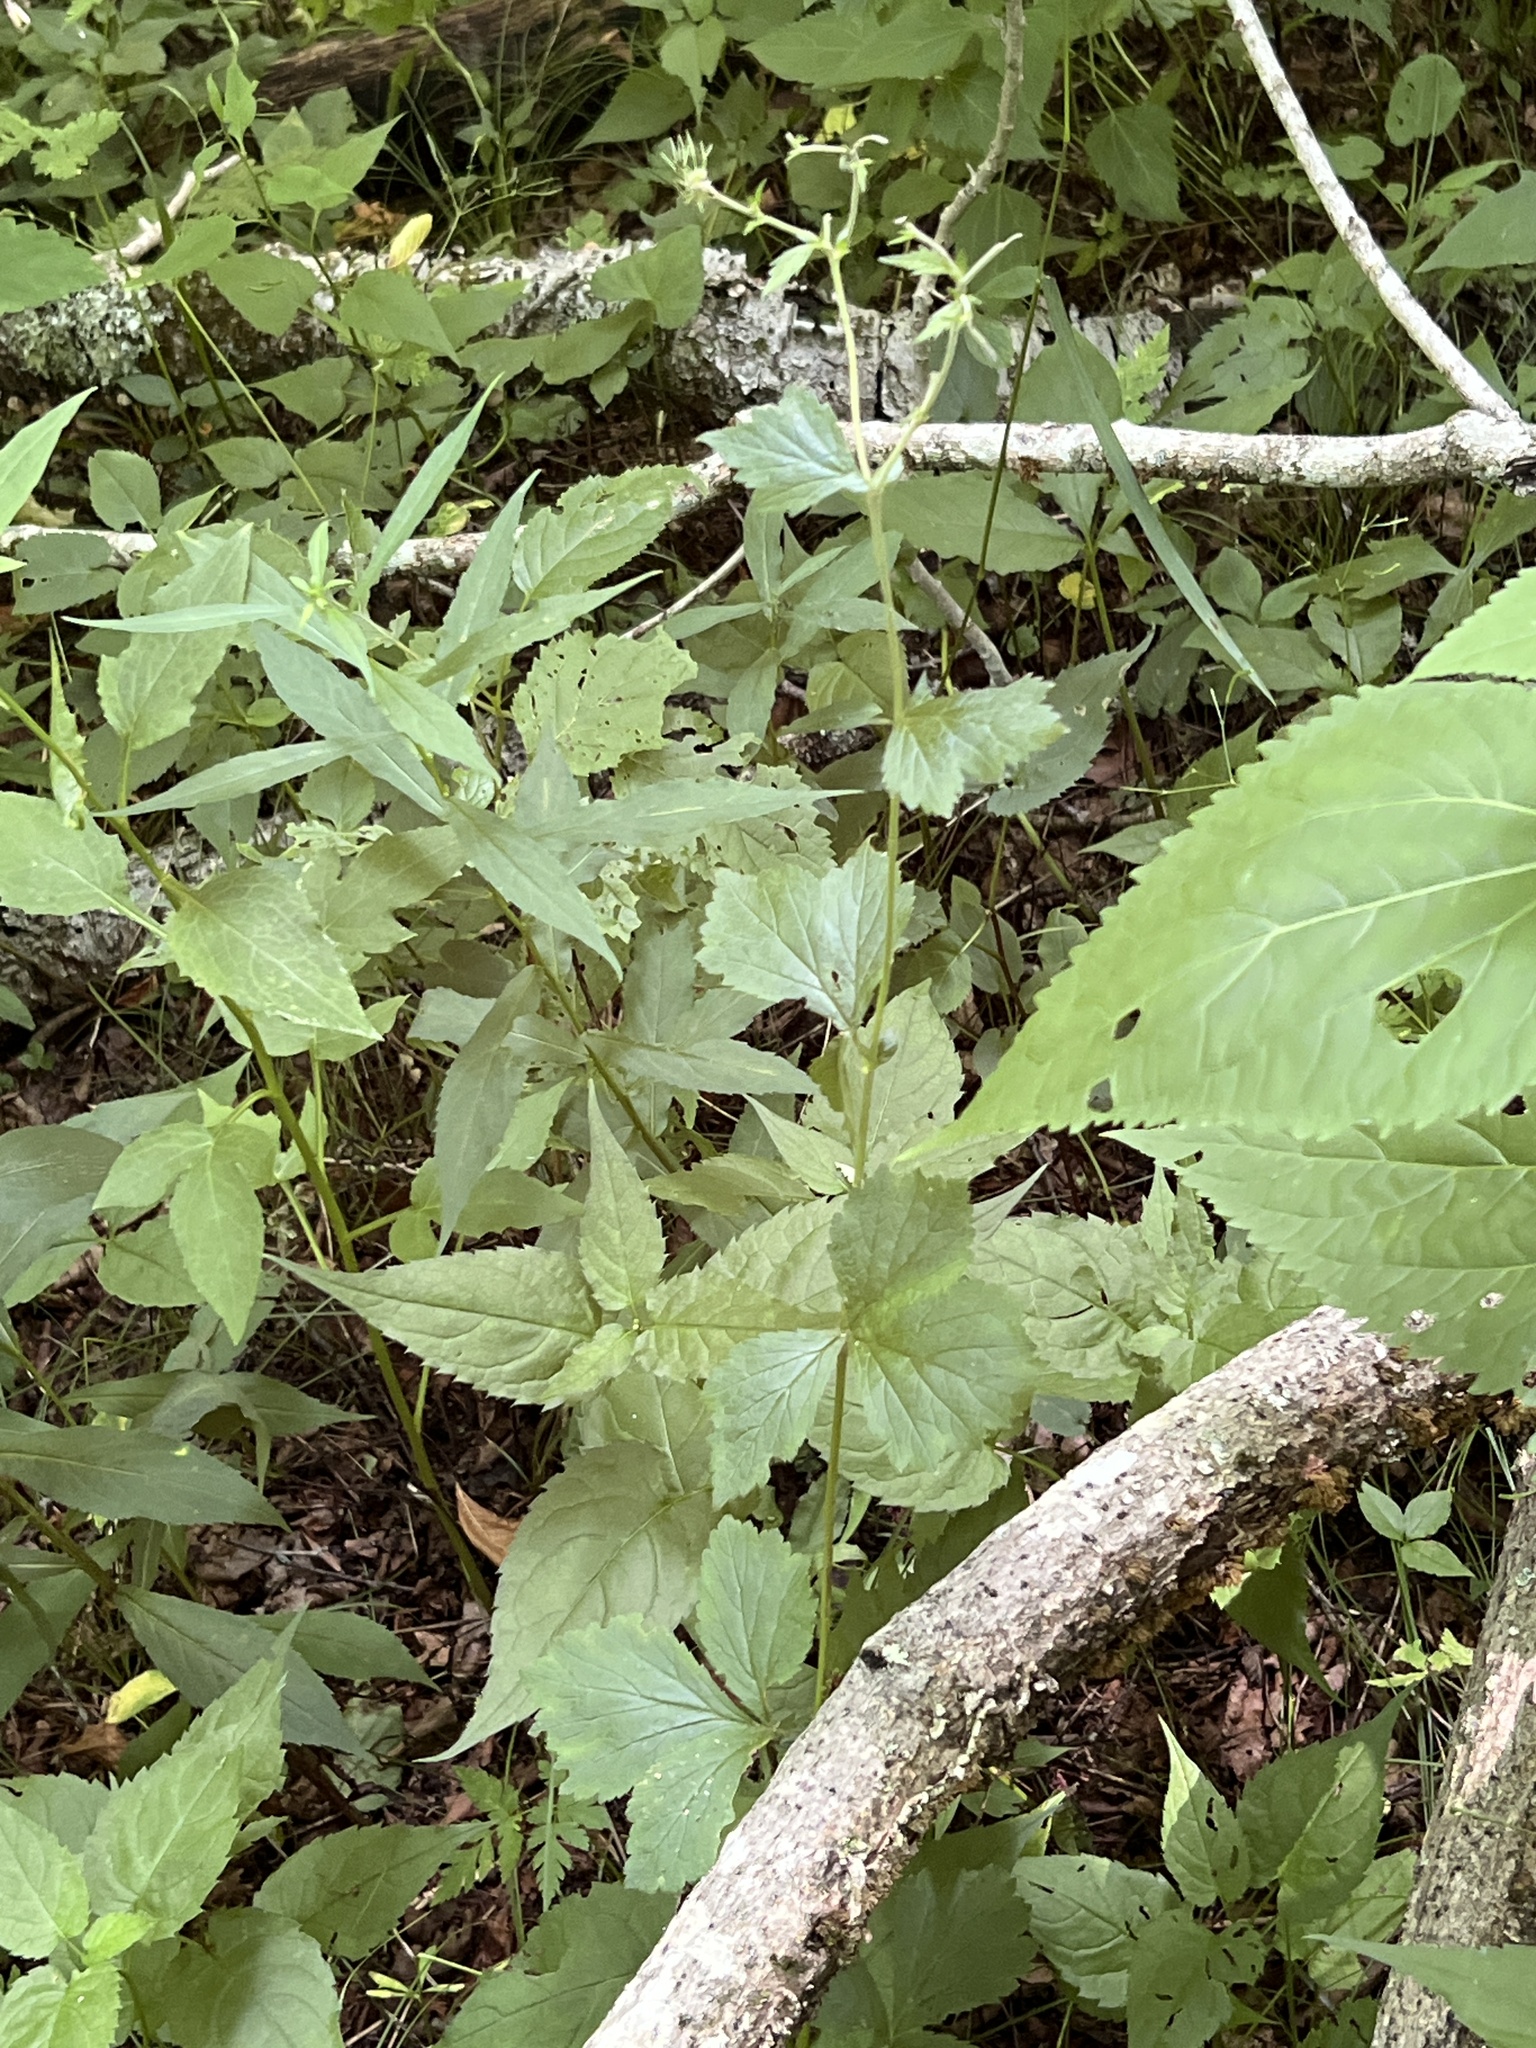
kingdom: Plantae
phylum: Tracheophyta
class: Magnoliopsida
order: Rosales
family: Rosaceae
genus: Geum
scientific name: Geum geniculatum
